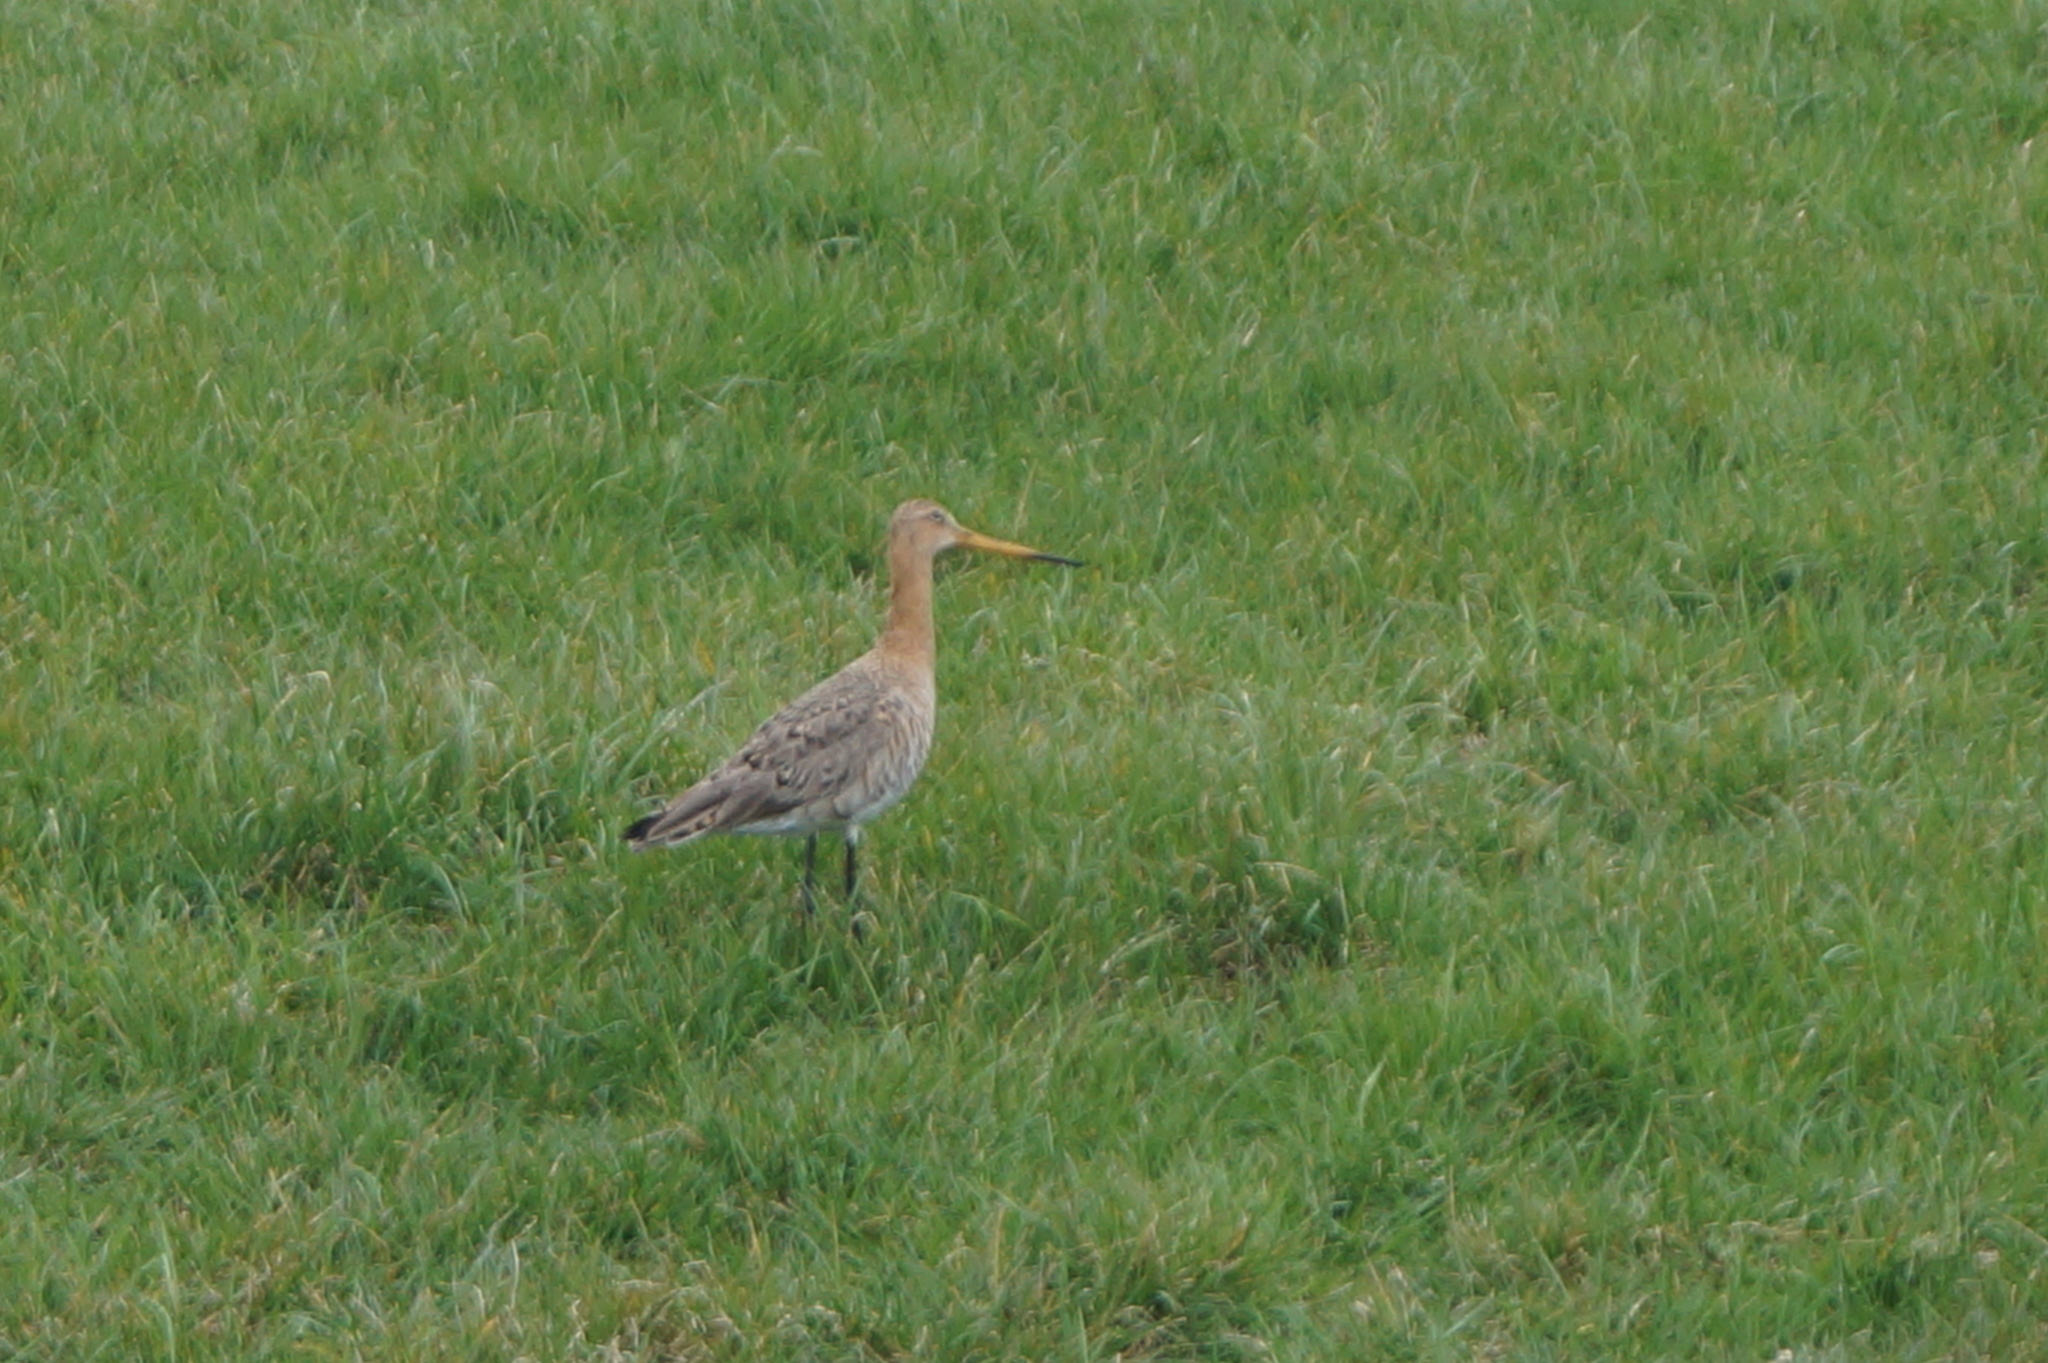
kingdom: Animalia
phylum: Chordata
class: Aves
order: Charadriiformes
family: Scolopacidae
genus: Limosa
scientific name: Limosa limosa
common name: Black-tailed godwit
